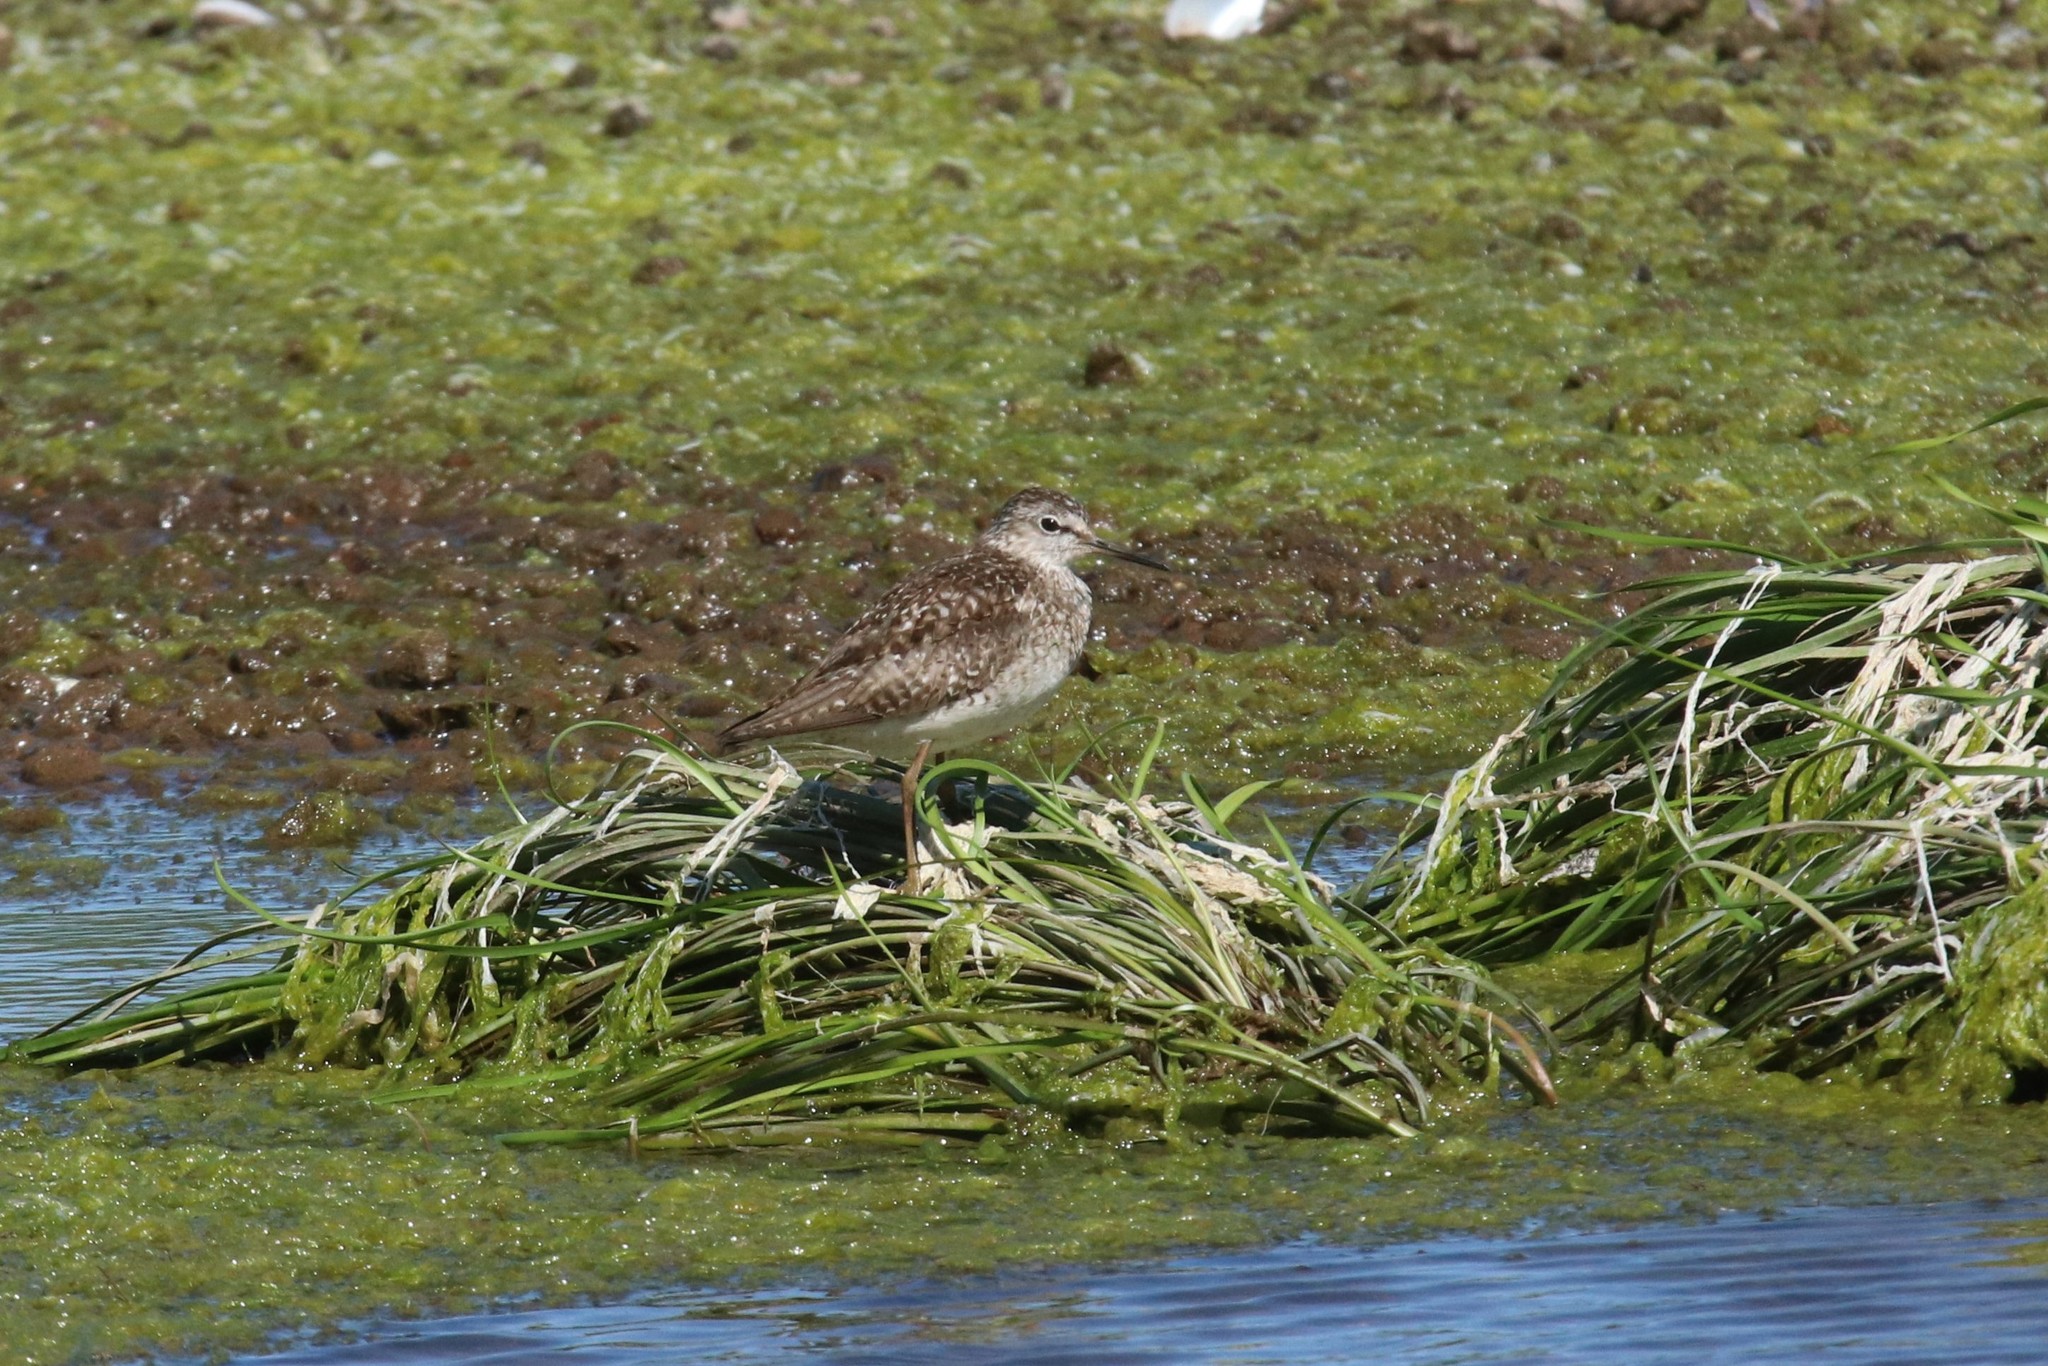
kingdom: Animalia
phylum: Chordata
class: Aves
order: Charadriiformes
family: Scolopacidae
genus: Tringa
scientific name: Tringa glareola
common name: Wood sandpiper
